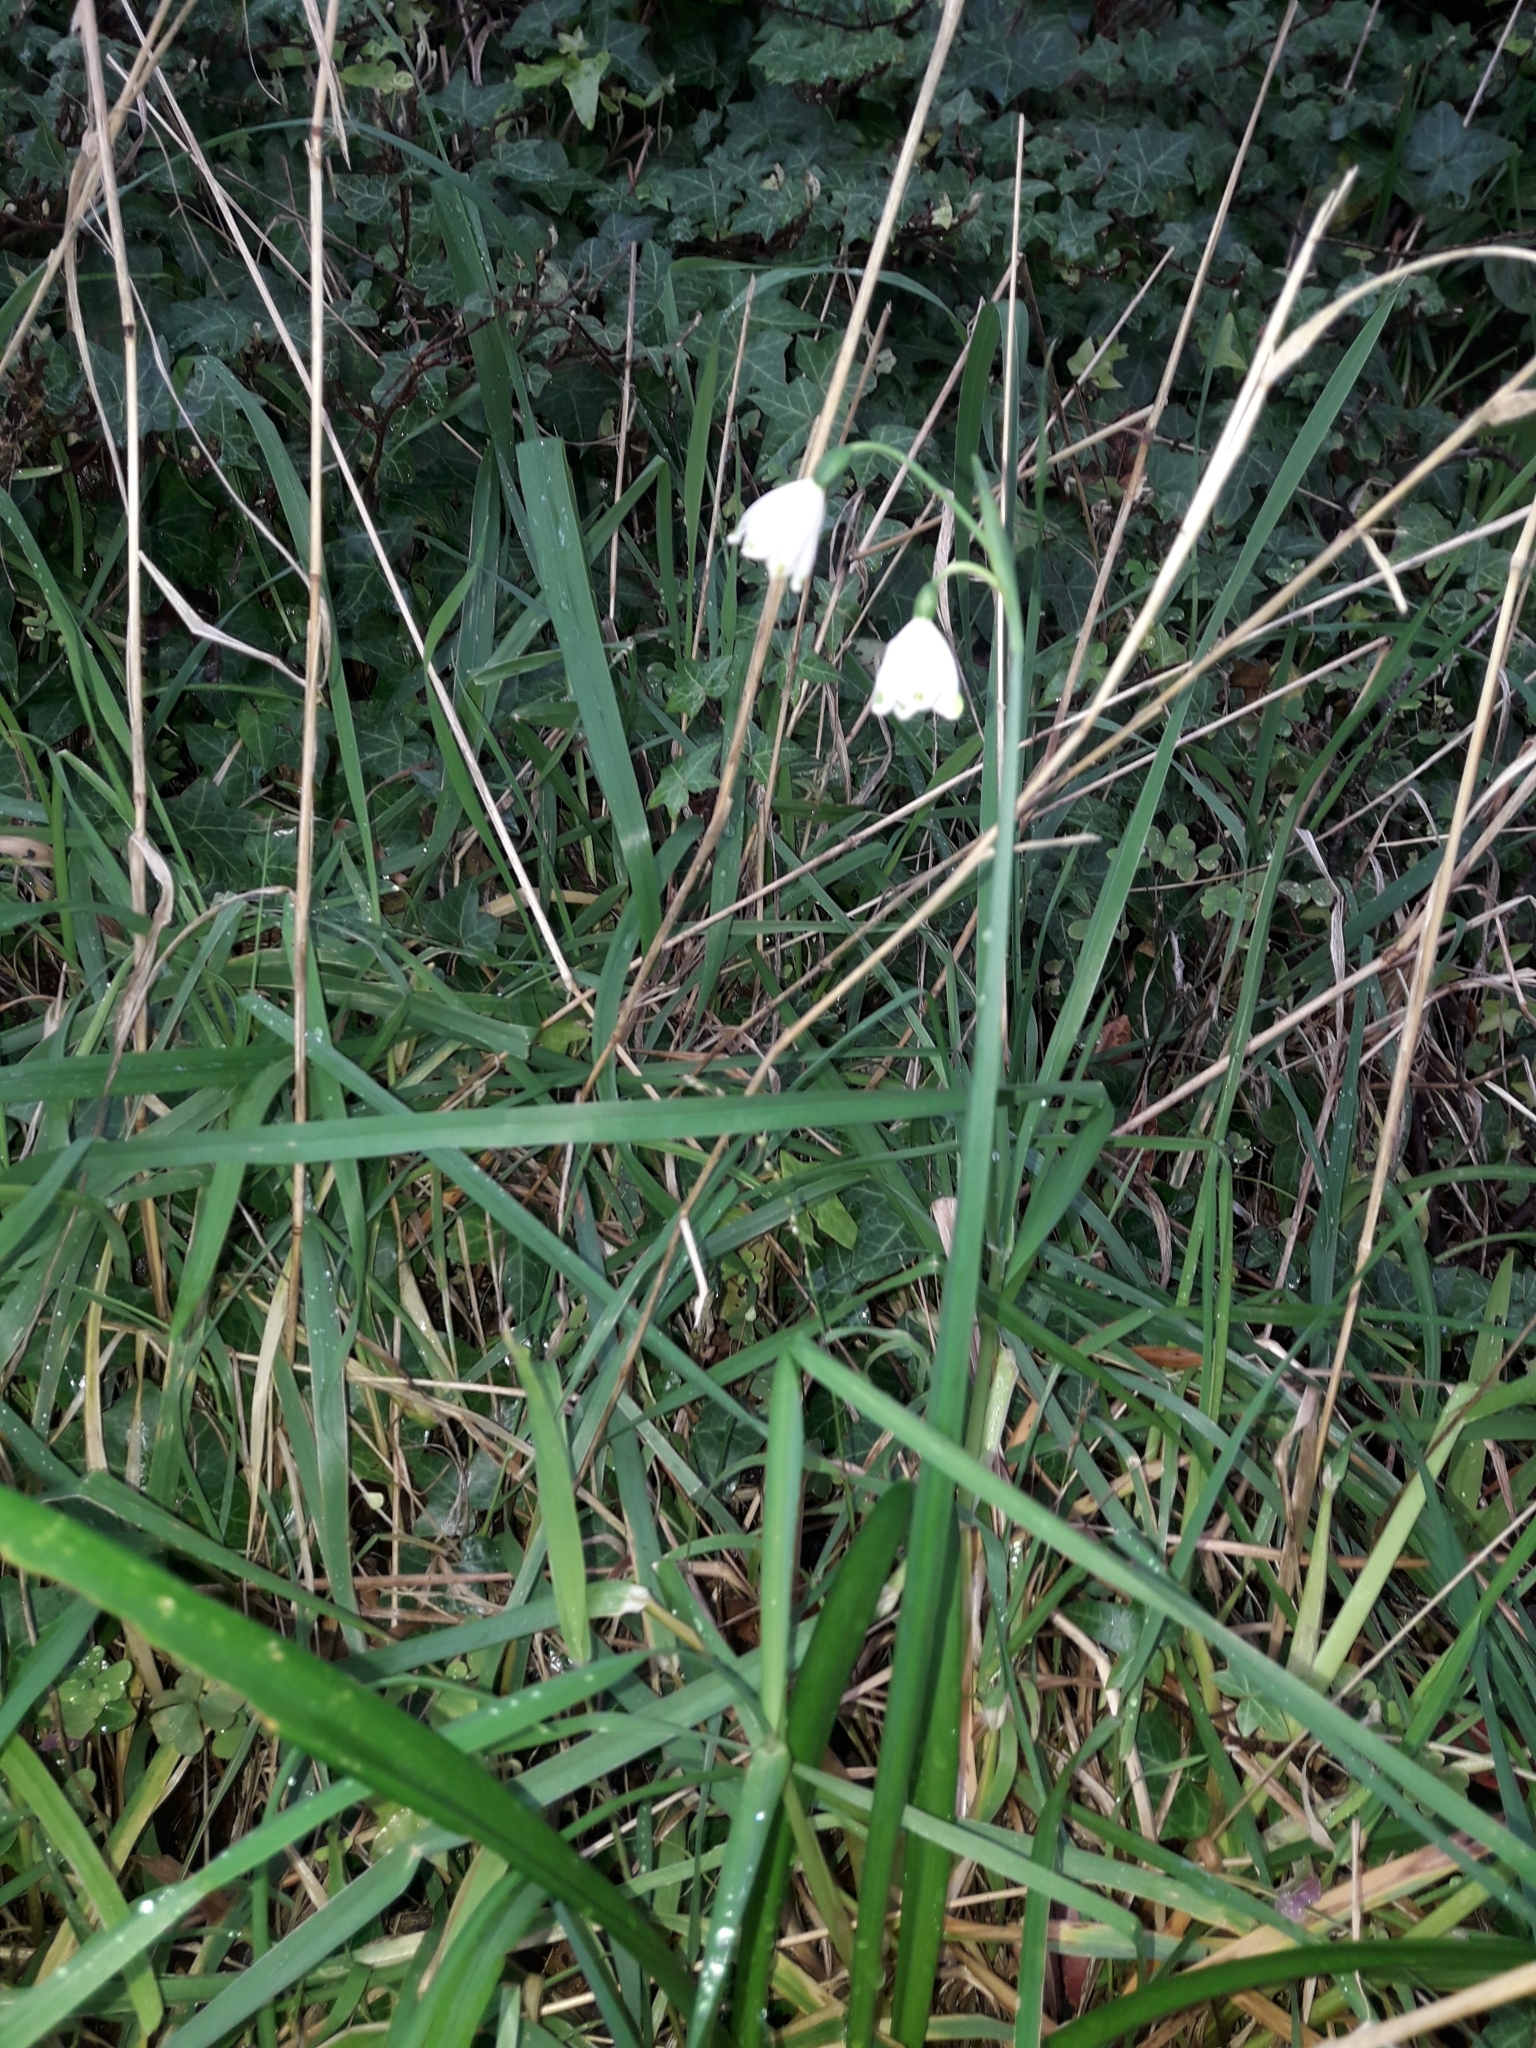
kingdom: Plantae
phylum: Tracheophyta
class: Liliopsida
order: Asparagales
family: Amaryllidaceae
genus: Leucojum
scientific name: Leucojum aestivum
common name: Summer snowflake
